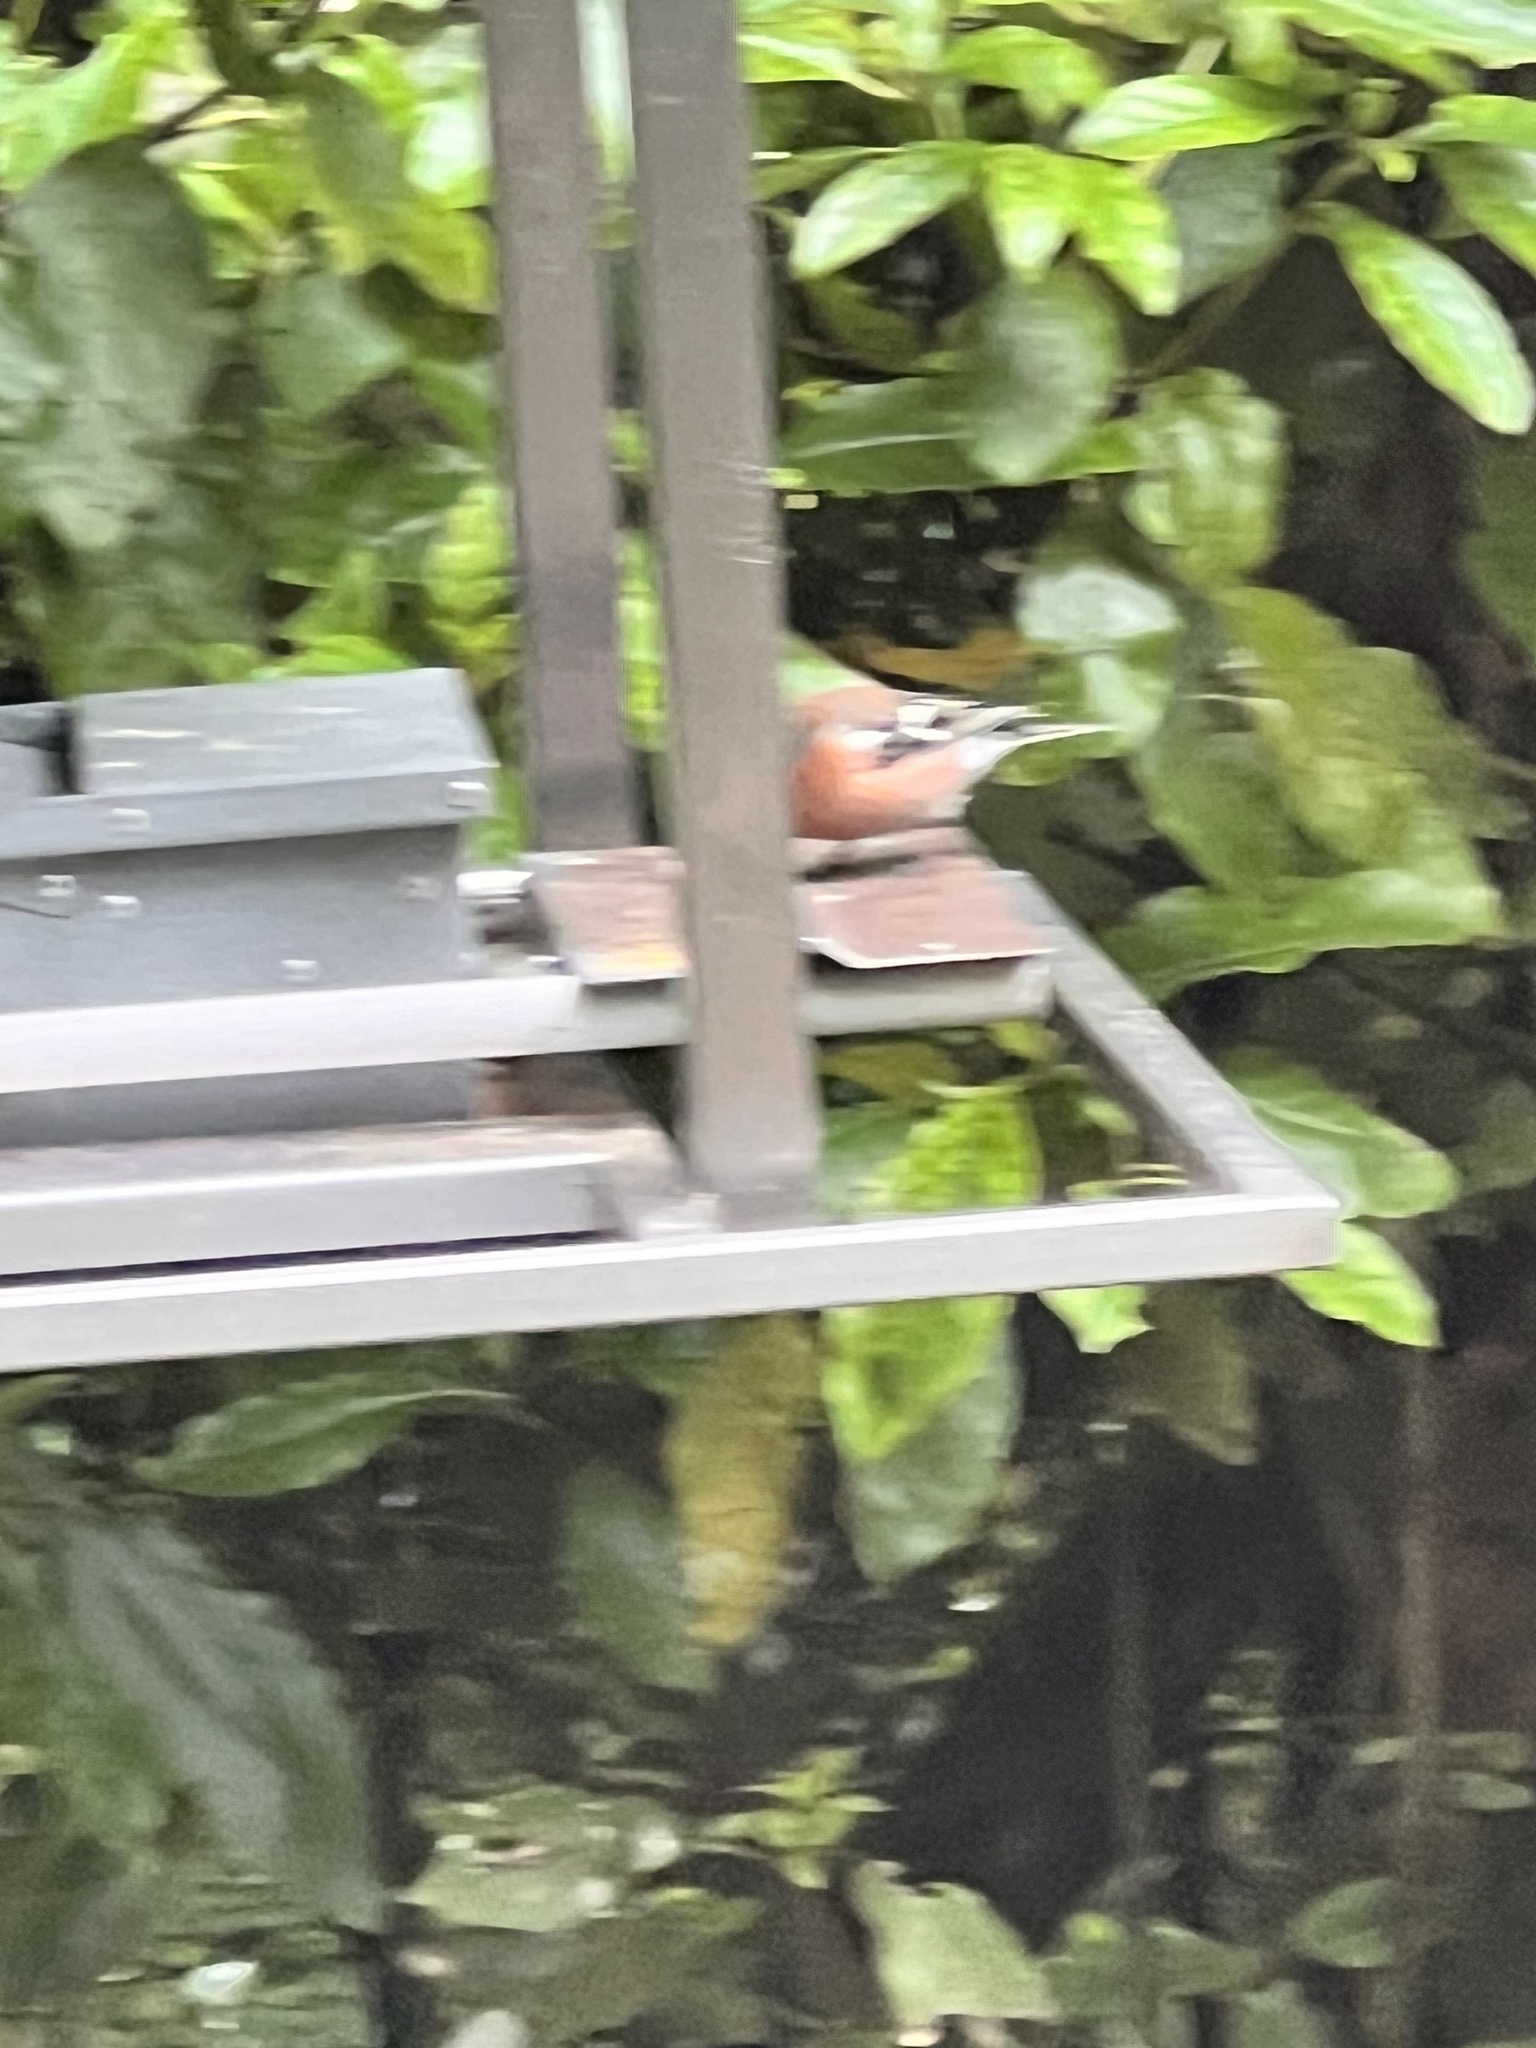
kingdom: Animalia
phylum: Chordata
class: Aves
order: Passeriformes
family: Fringillidae
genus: Fringilla
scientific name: Fringilla coelebs
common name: Common chaffinch
